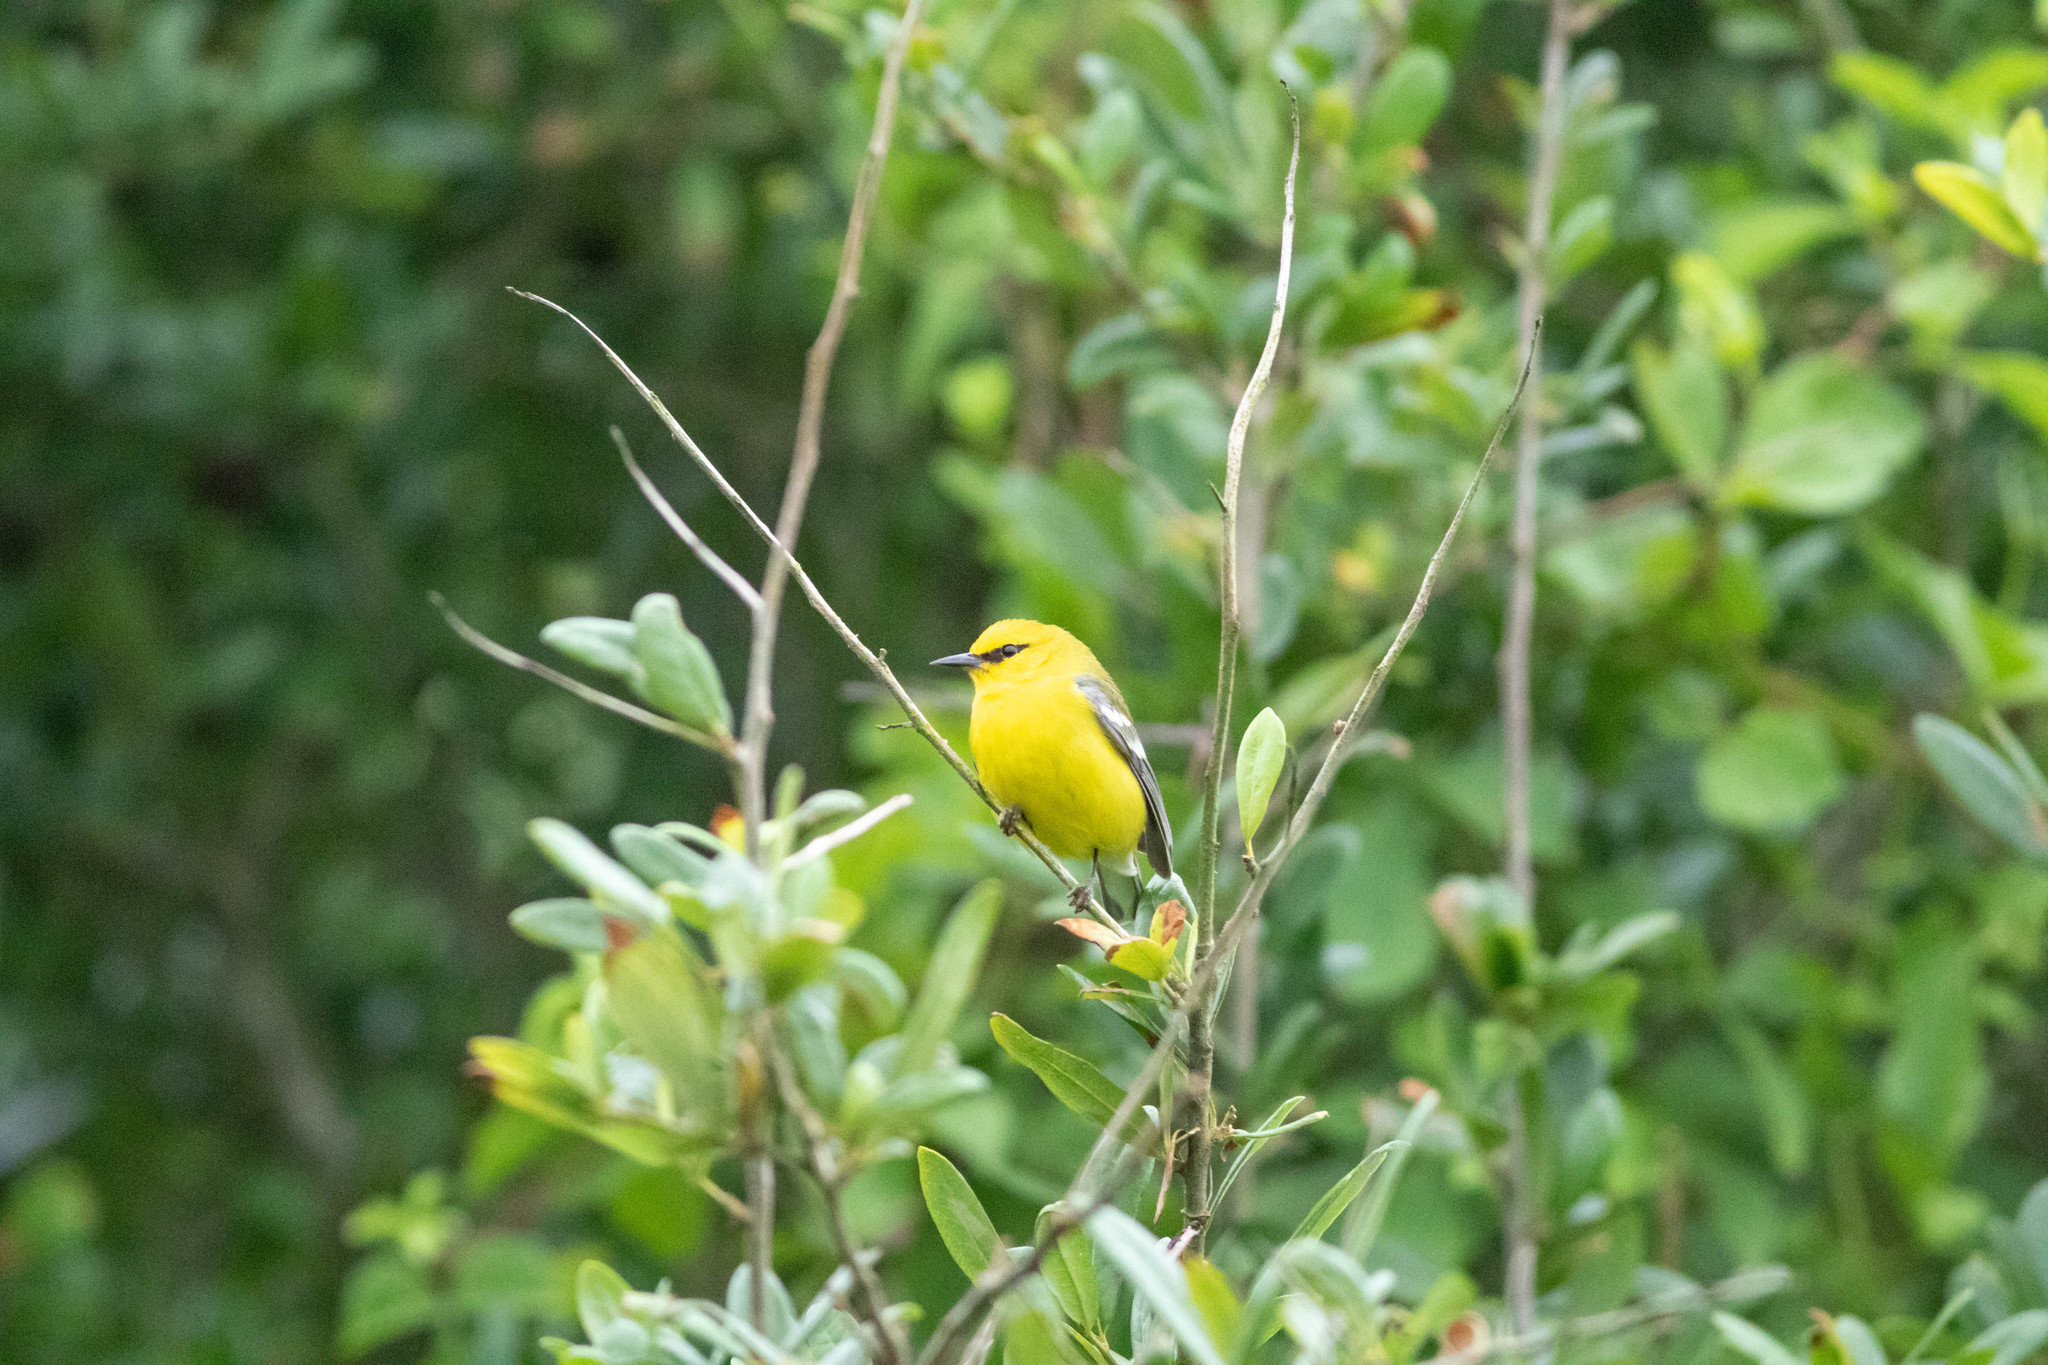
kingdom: Animalia
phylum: Chordata
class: Aves
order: Passeriformes
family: Parulidae
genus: Vermivora
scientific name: Vermivora cyanoptera
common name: Blue-winged warbler
